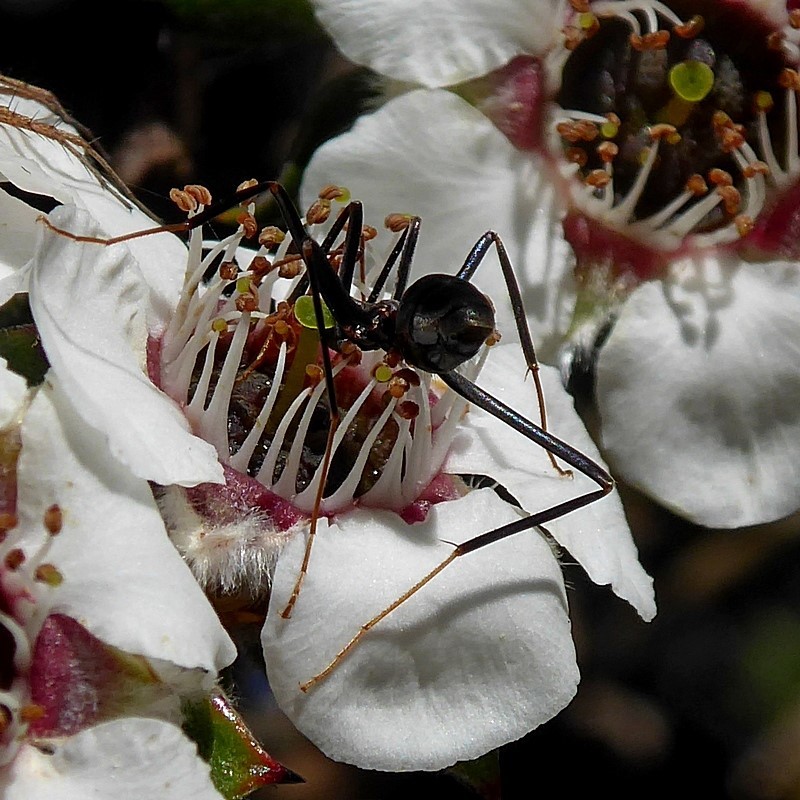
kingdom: Animalia
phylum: Arthropoda
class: Insecta
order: Hymenoptera
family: Formicidae
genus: Leptomyrmex
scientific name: Leptomyrmex erythrocephalus
